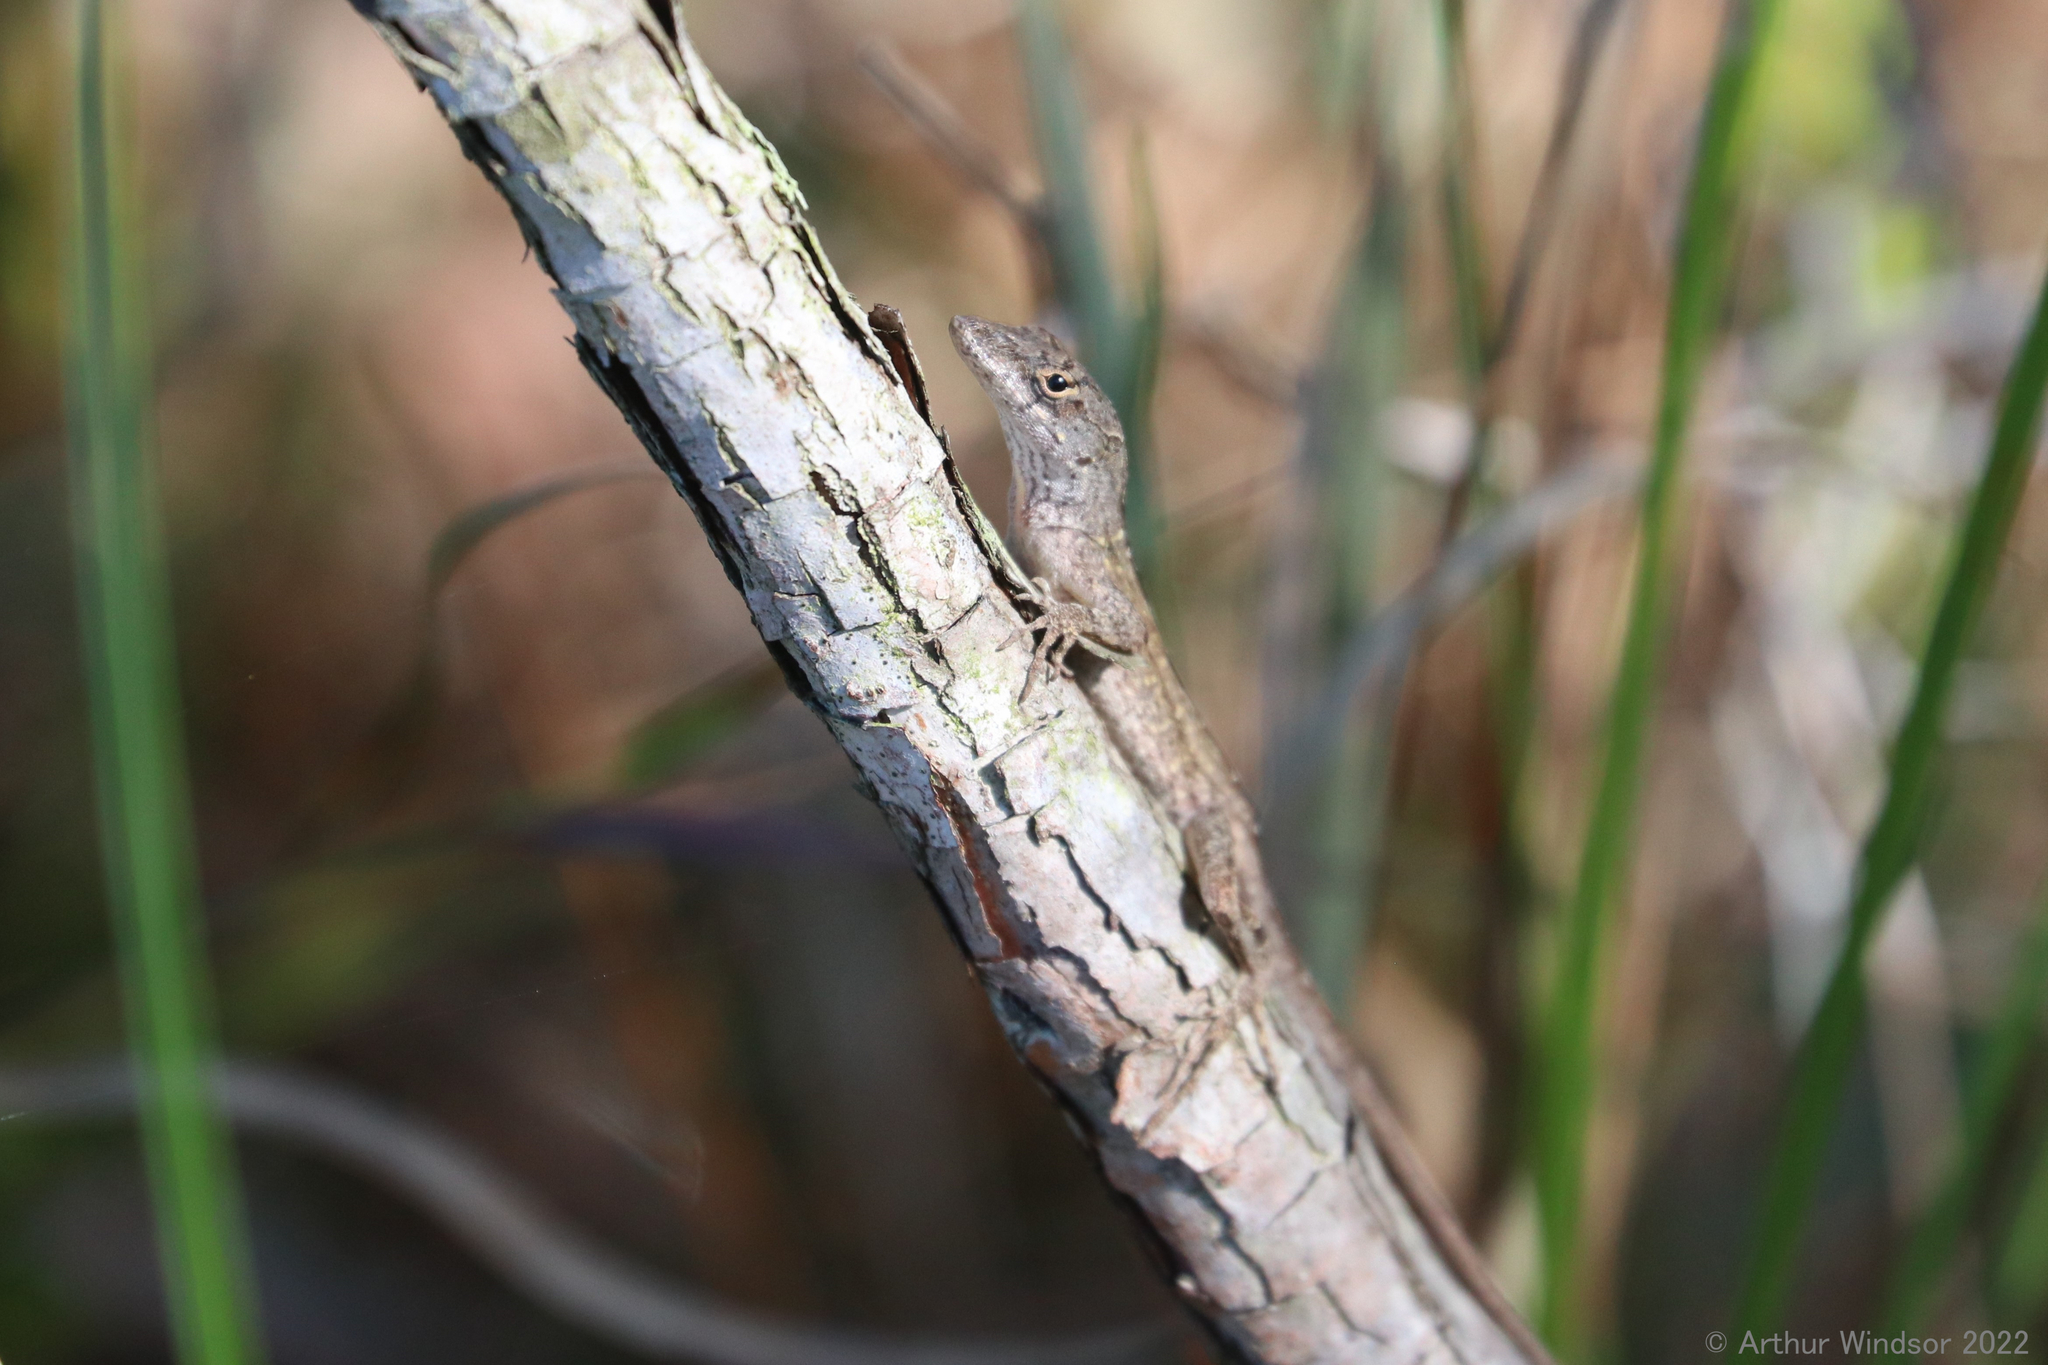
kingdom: Animalia
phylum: Chordata
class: Squamata
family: Dactyloidae
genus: Anolis
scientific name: Anolis sagrei
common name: Brown anole
